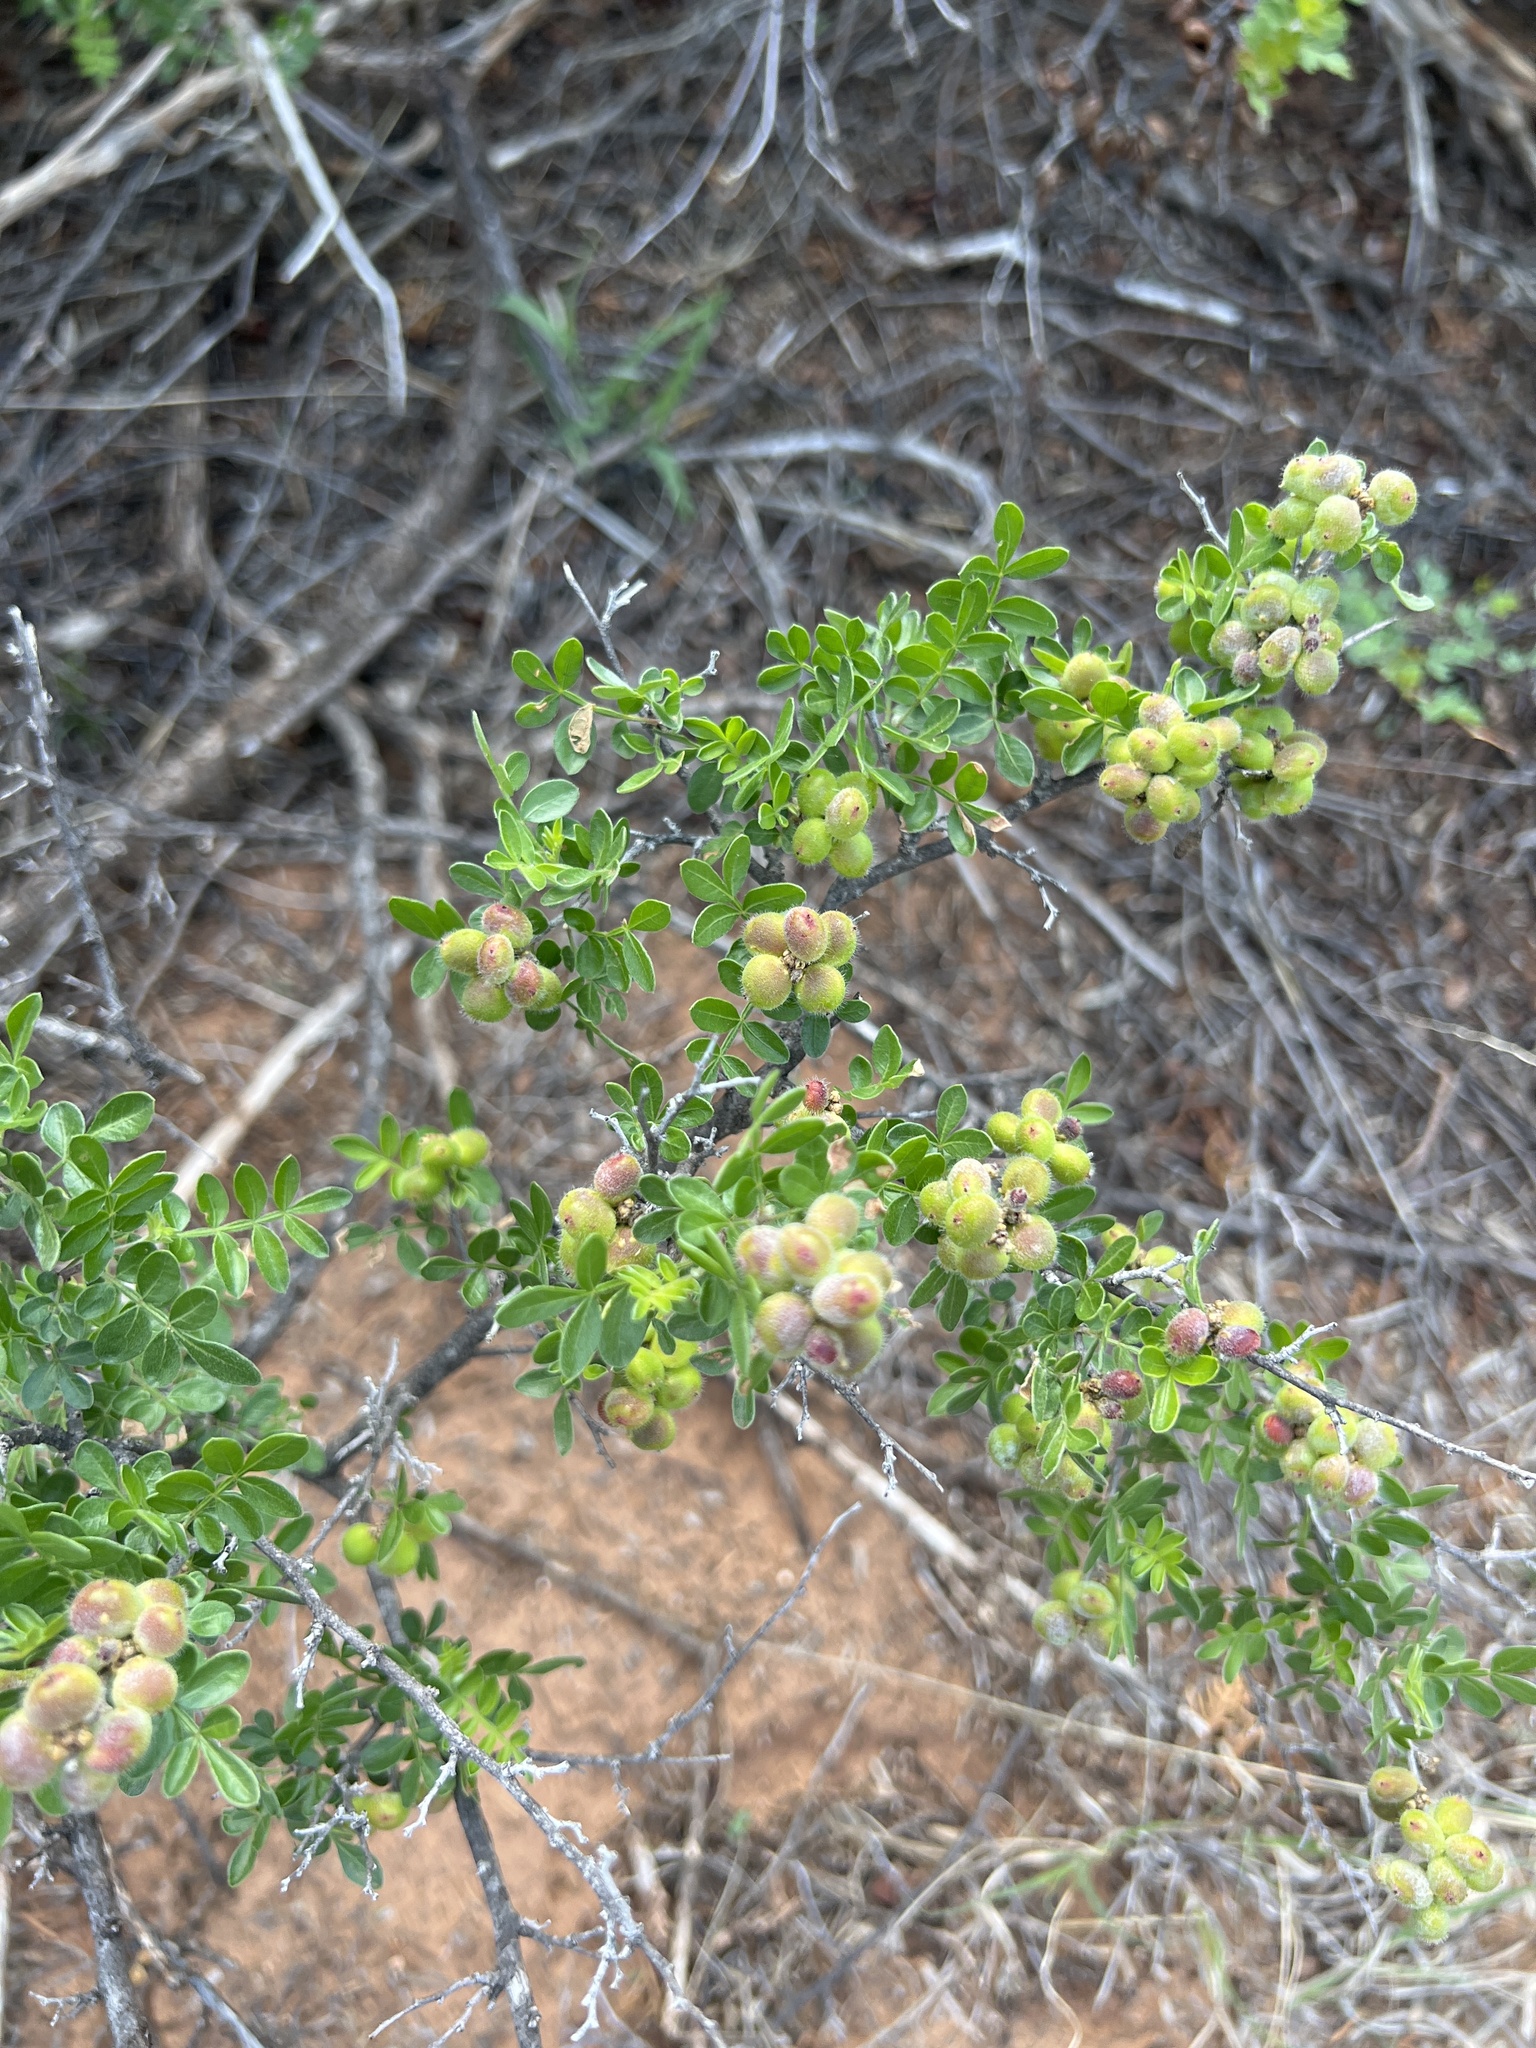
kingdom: Plantae
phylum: Tracheophyta
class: Magnoliopsida
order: Sapindales
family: Anacardiaceae
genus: Rhus
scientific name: Rhus microphylla
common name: Desert sumac
